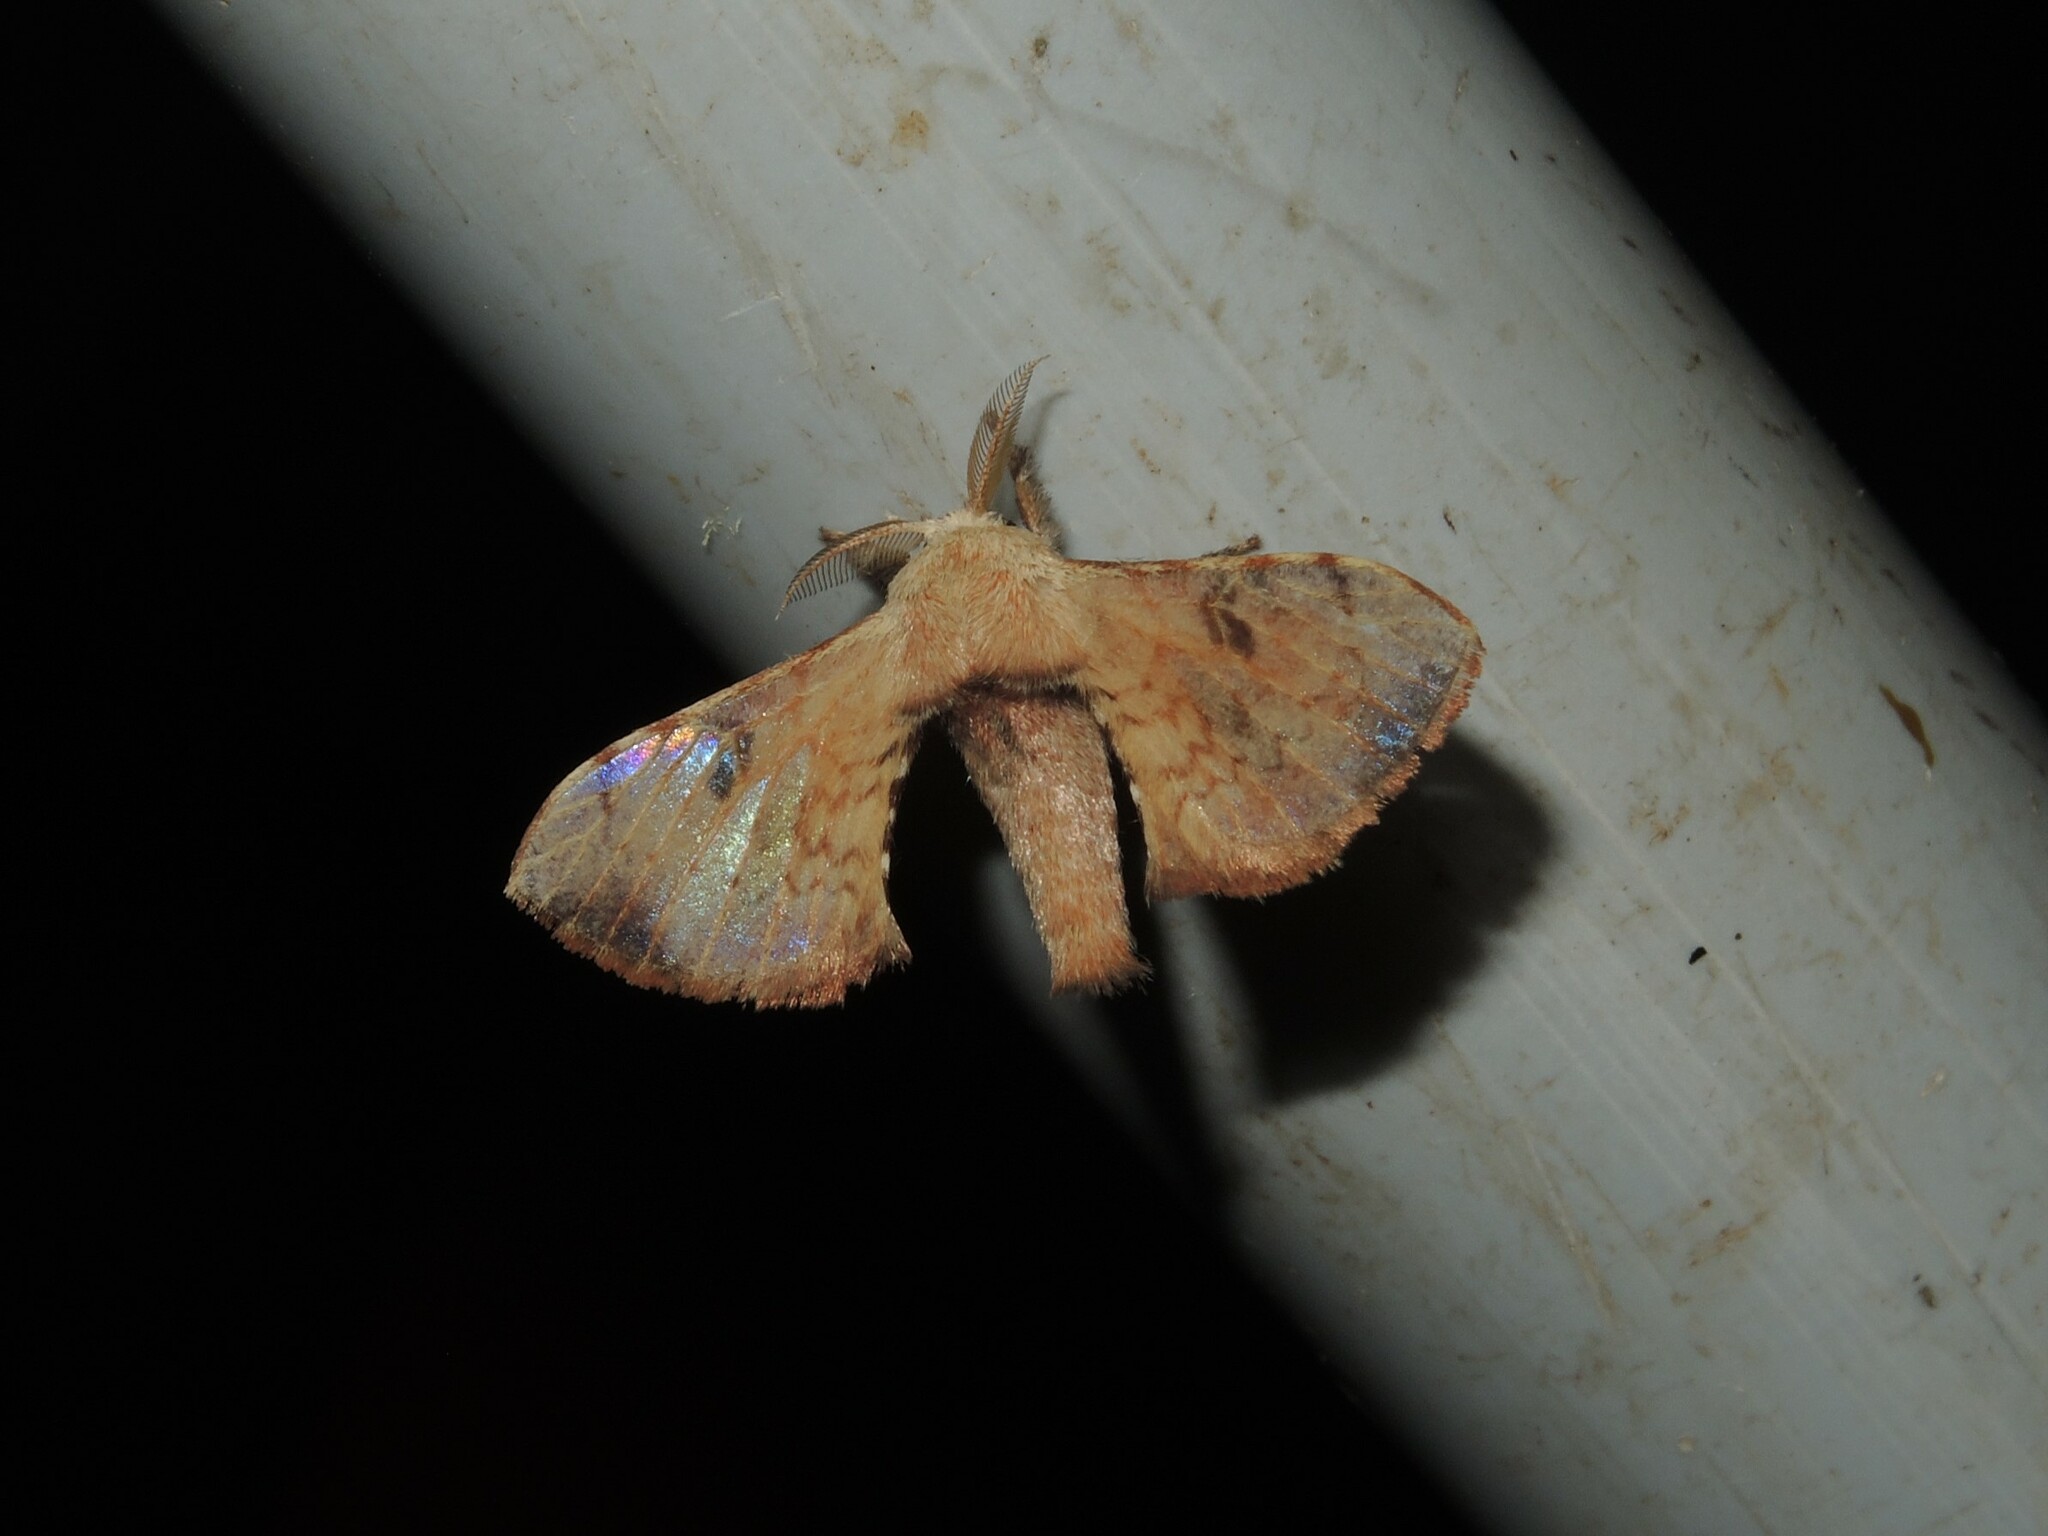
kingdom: Animalia
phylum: Arthropoda
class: Insecta
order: Lepidoptera
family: Bombycidae
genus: Trilocha
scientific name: Trilocha varians
